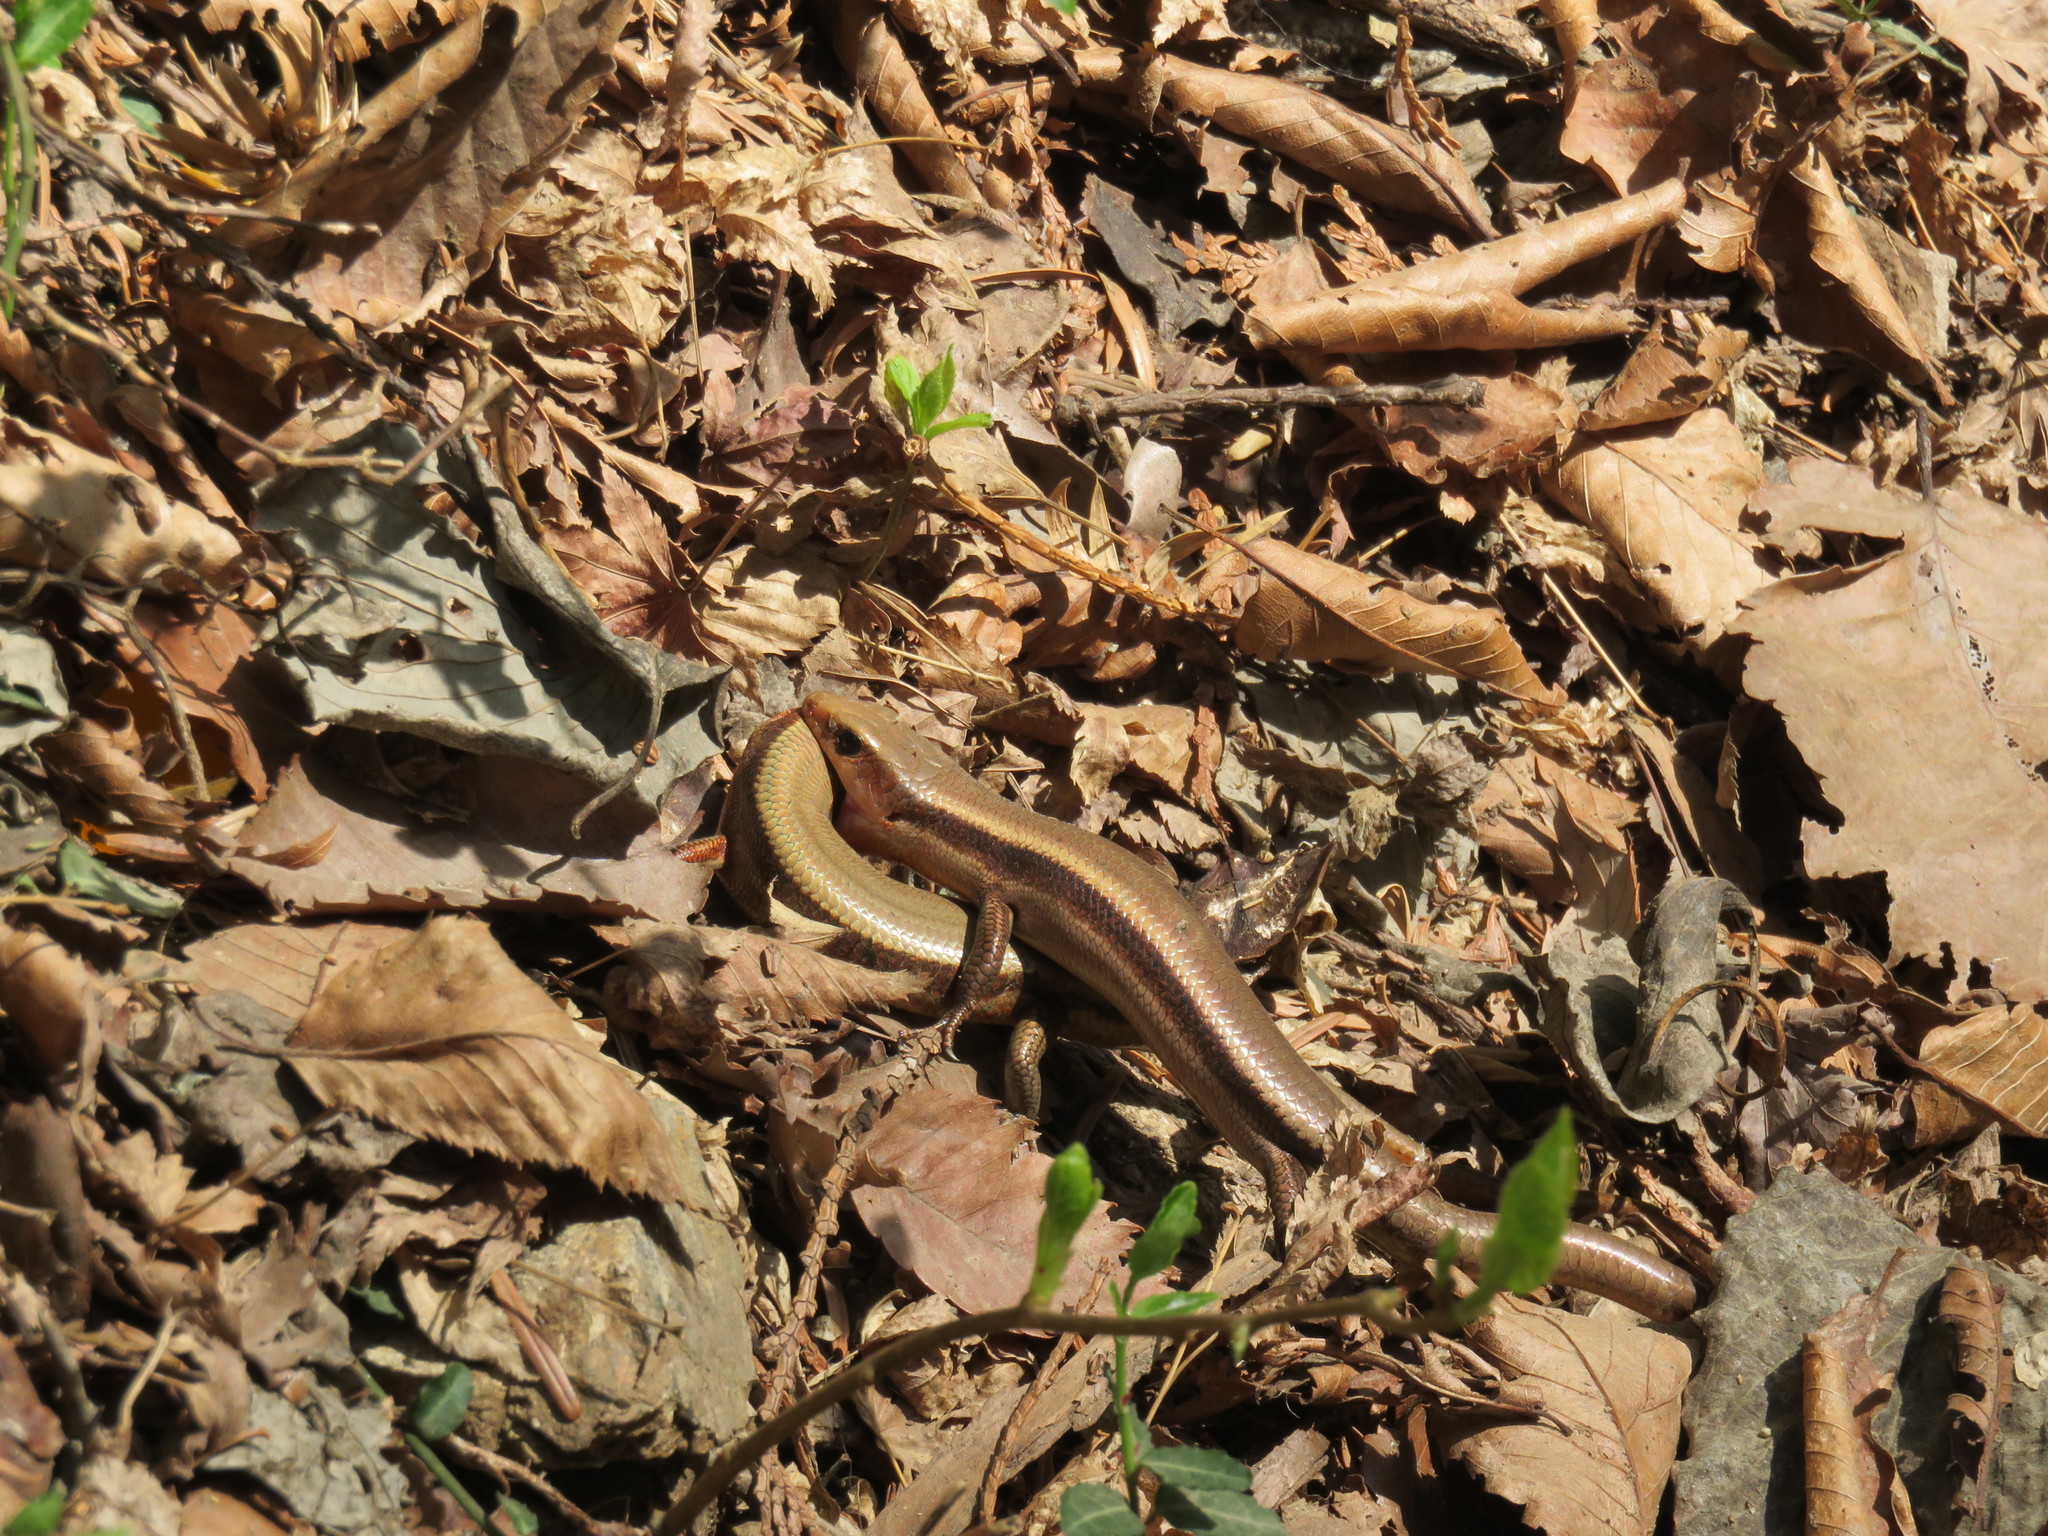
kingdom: Animalia
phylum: Chordata
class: Squamata
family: Scincidae
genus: Plestiodon
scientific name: Plestiodon finitimus
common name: Far eastern skink
